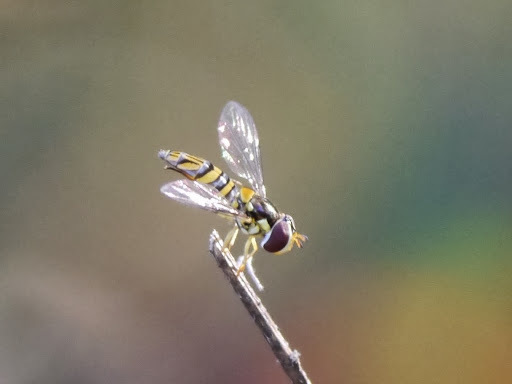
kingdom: Animalia
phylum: Arthropoda
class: Insecta
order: Diptera
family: Syrphidae
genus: Allograpta
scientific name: Allograpta obliqua
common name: Common oblique syrphid
